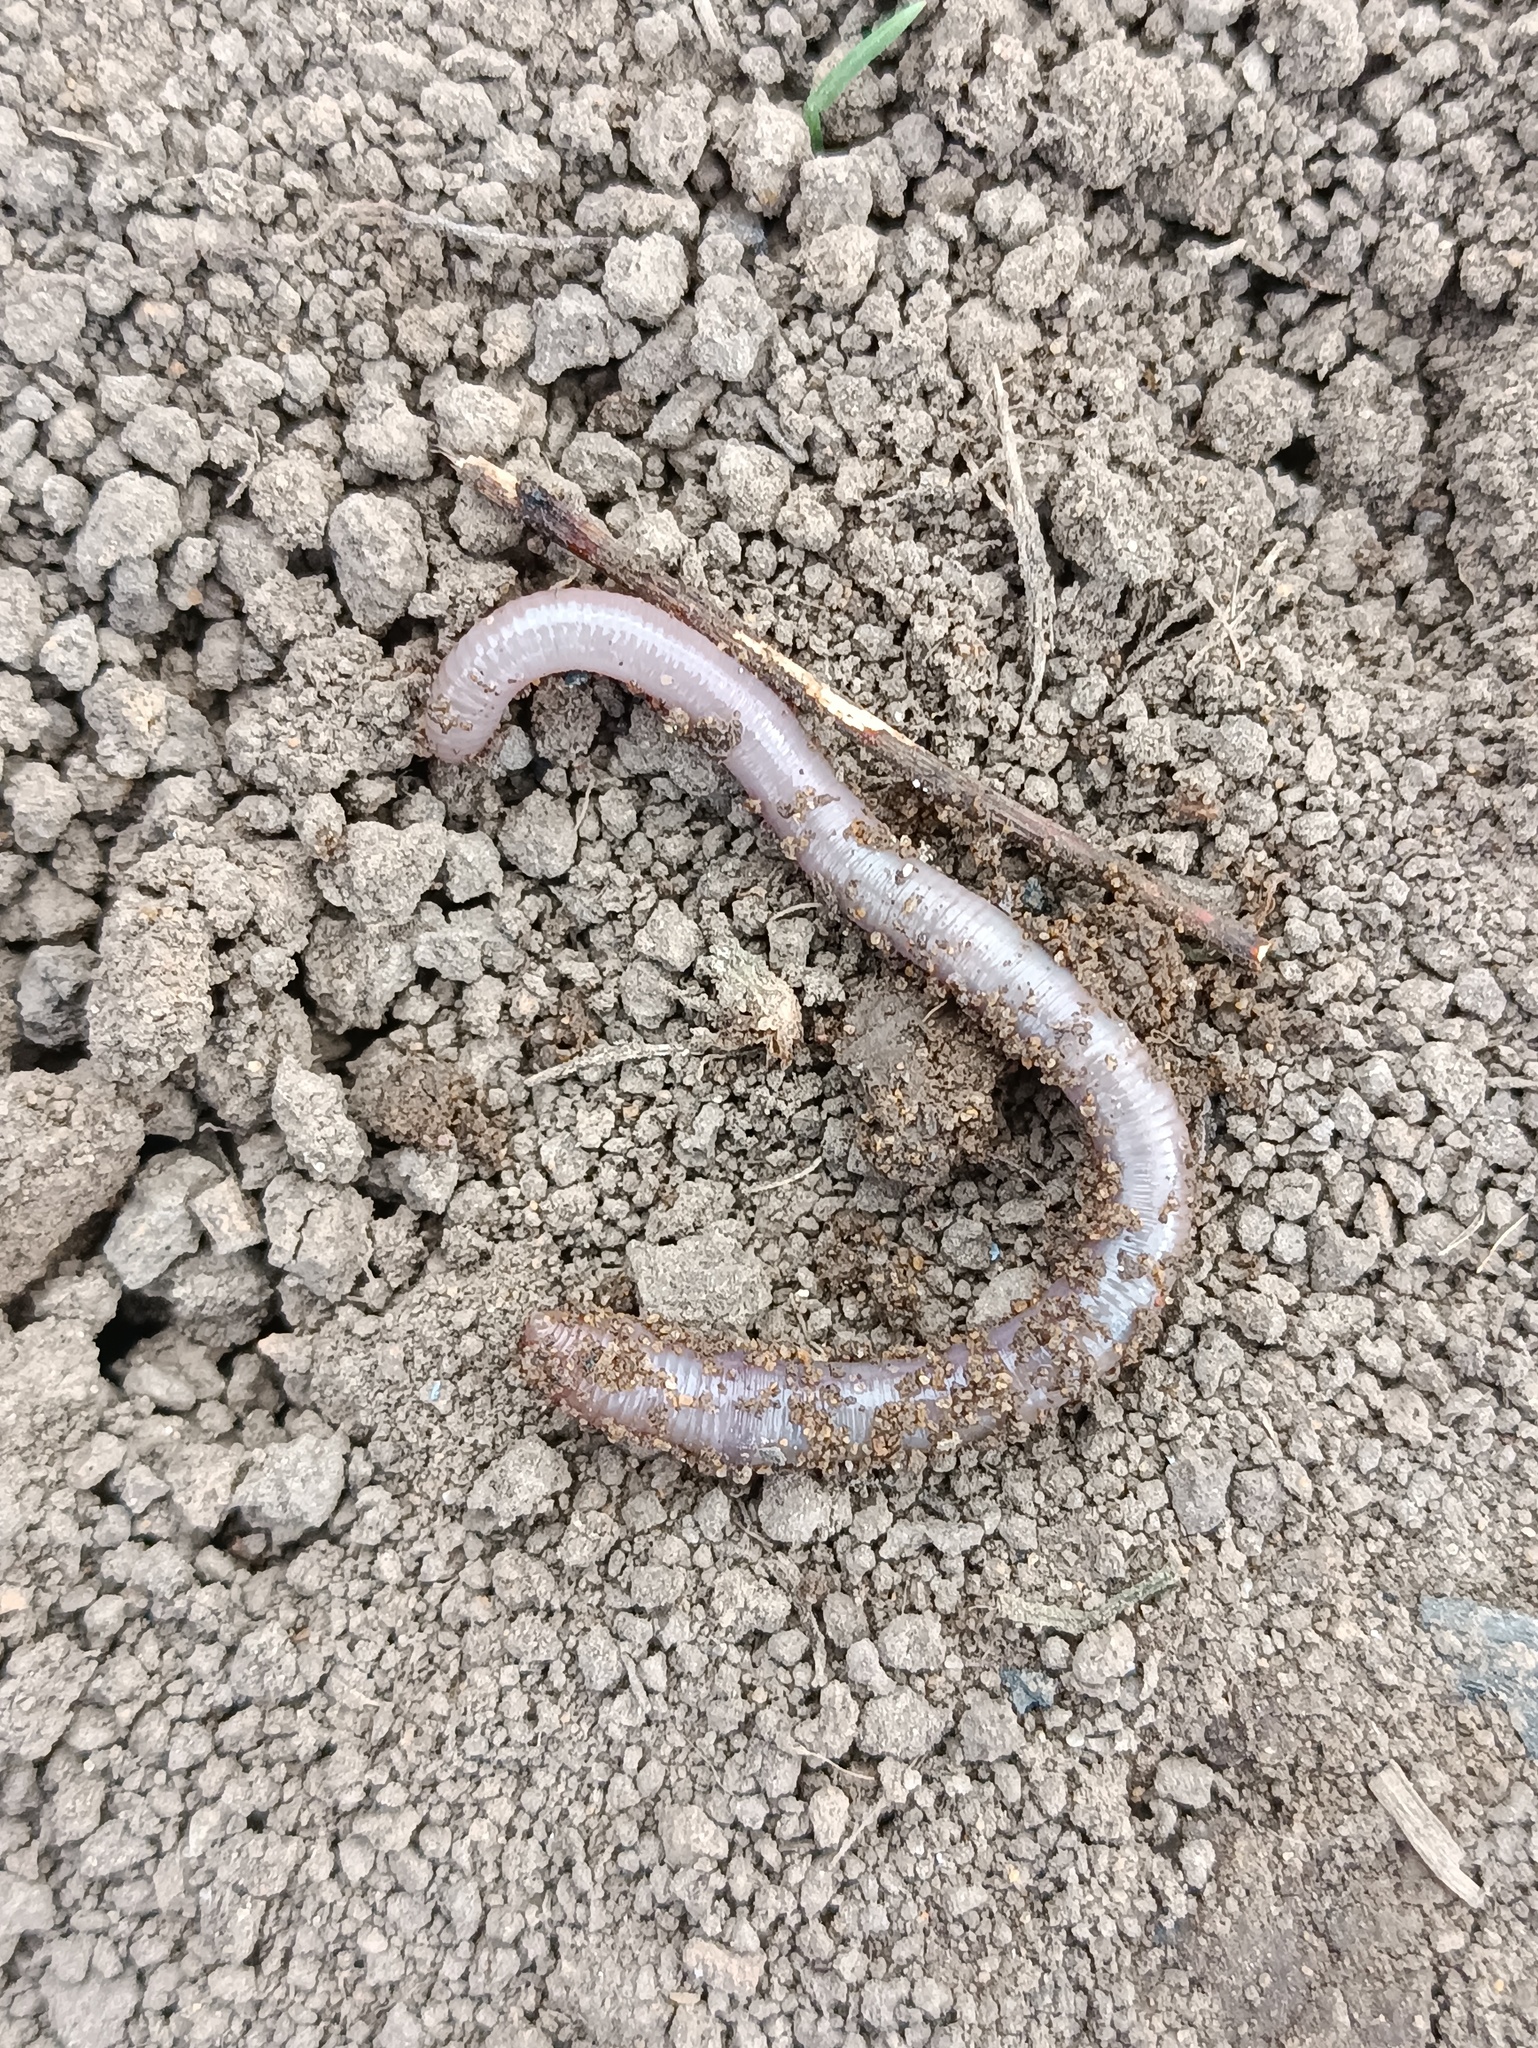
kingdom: Animalia
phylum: Annelida
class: Clitellata
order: Crassiclitellata
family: Lumbricidae
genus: Aporrectodea
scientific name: Aporrectodea caliginosa
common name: Grey worm
